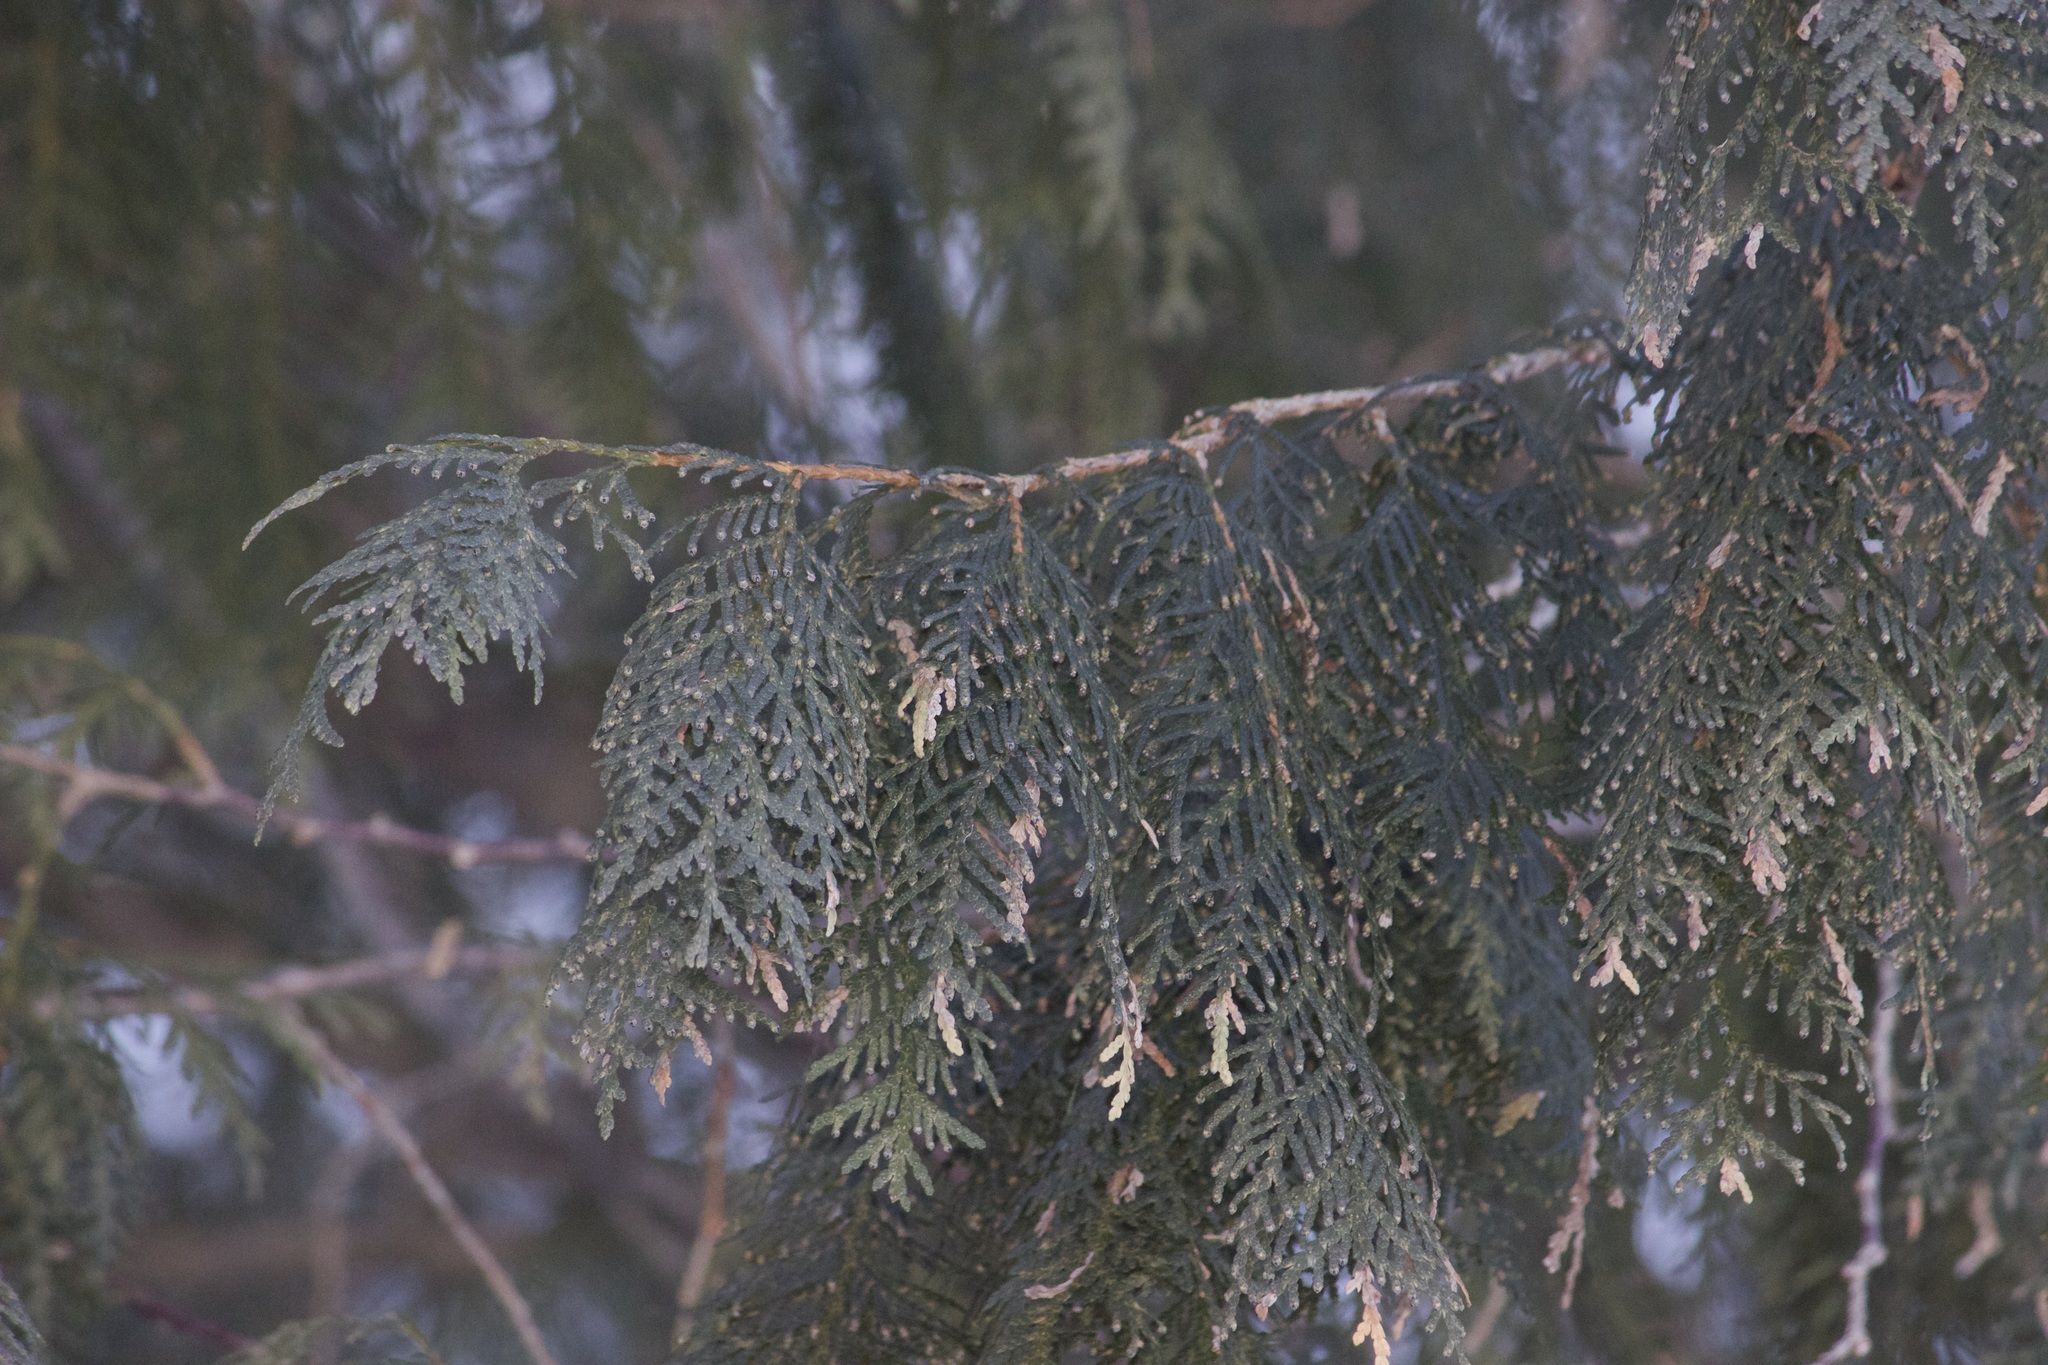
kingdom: Plantae
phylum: Tracheophyta
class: Pinopsida
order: Pinales
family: Cupressaceae
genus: Thuja
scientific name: Thuja occidentalis
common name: Northern white-cedar
